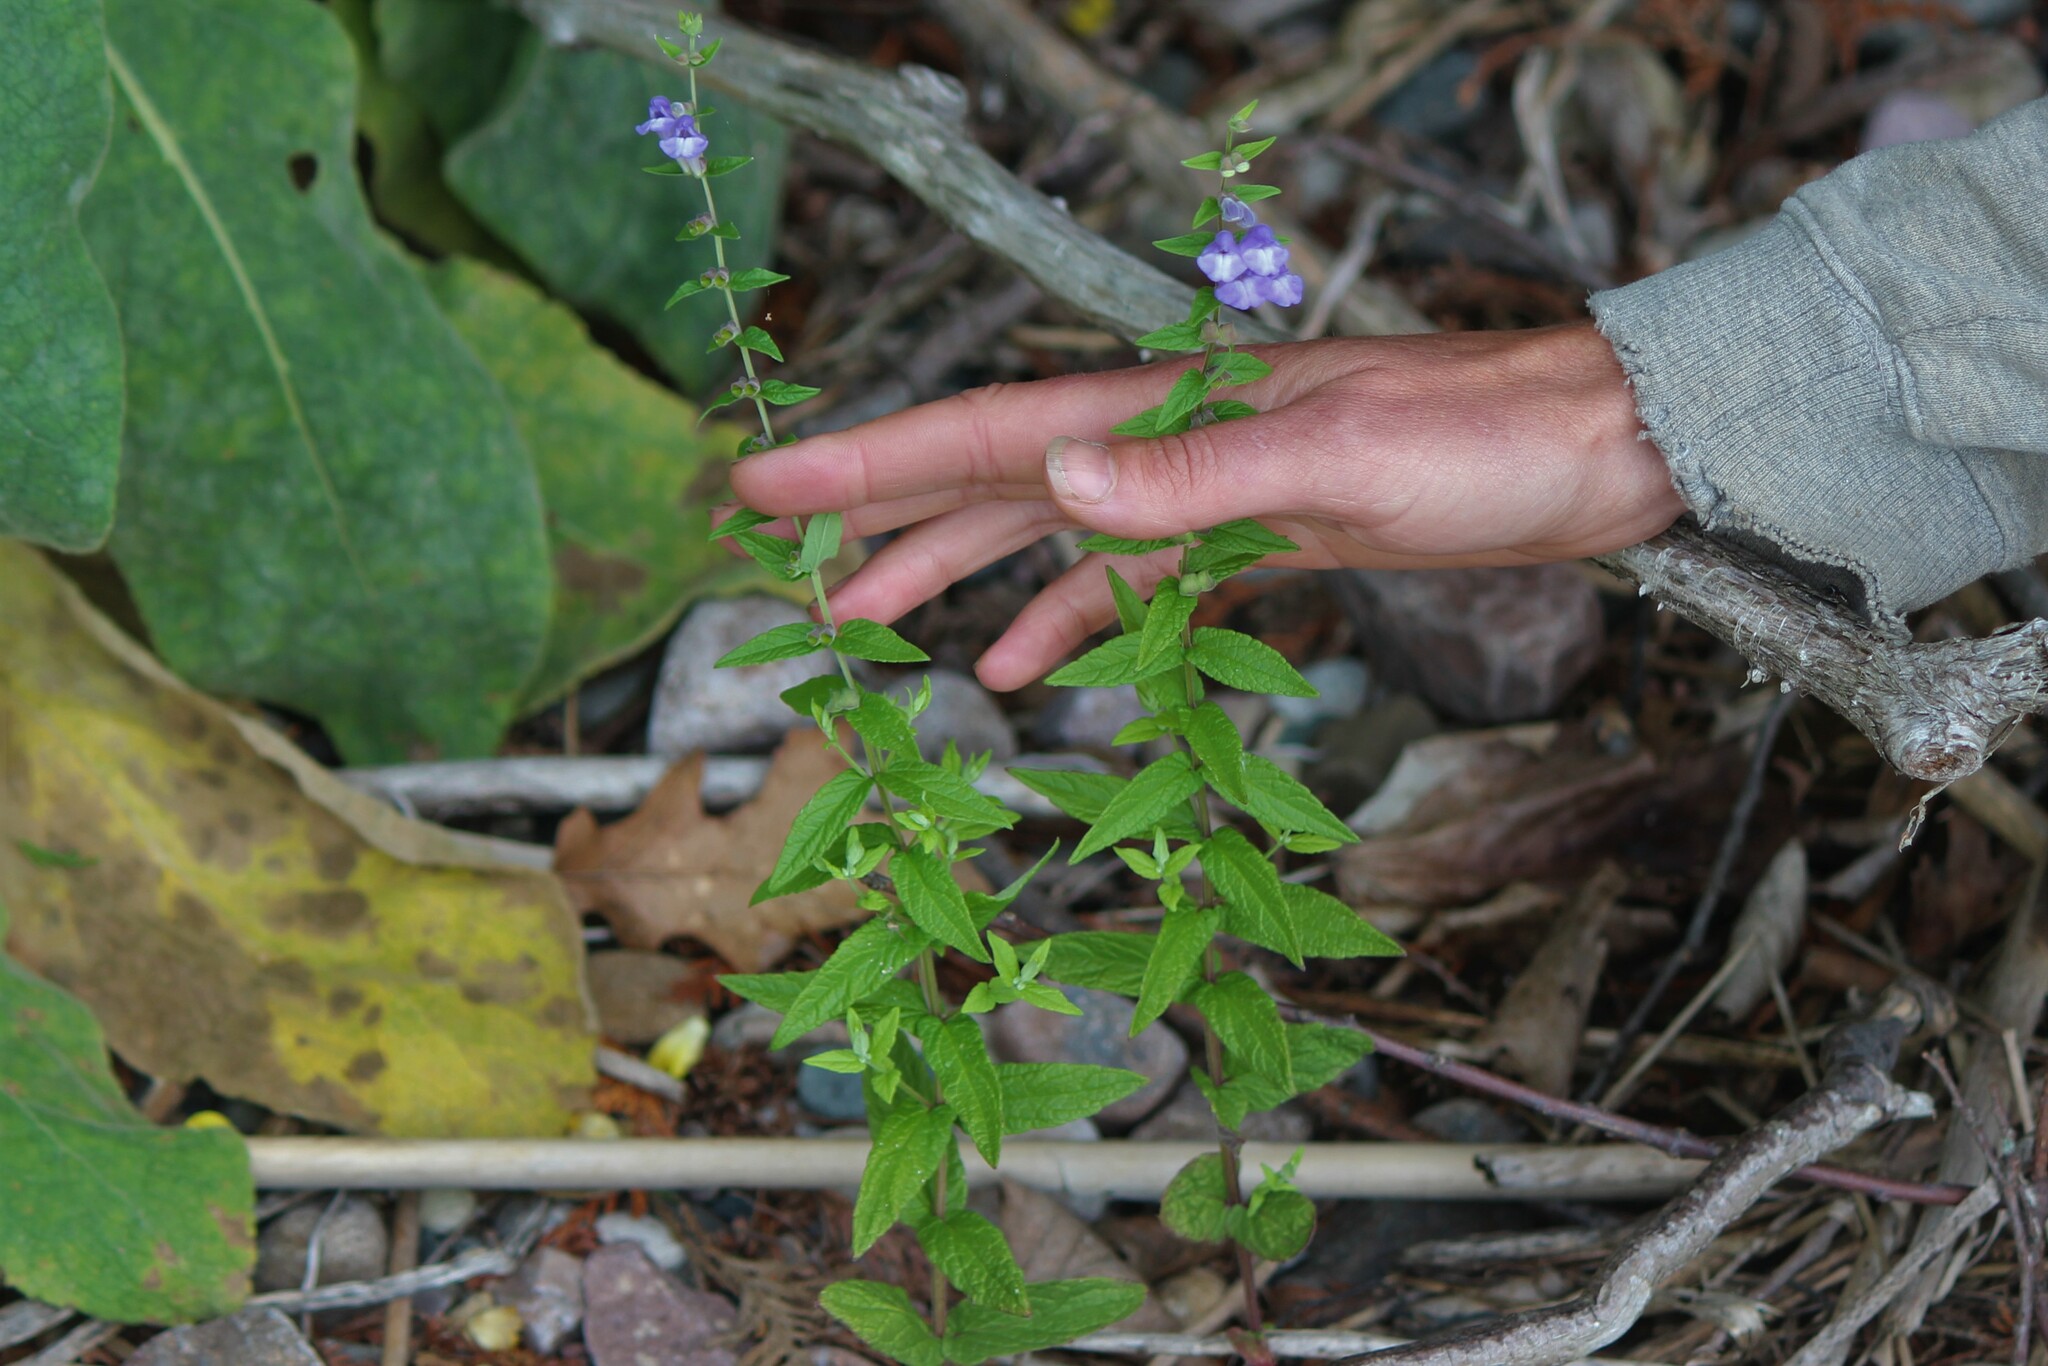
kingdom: Plantae
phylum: Tracheophyta
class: Magnoliopsida
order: Lamiales
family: Lamiaceae
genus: Scutellaria
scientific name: Scutellaria galericulata
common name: Skullcap
